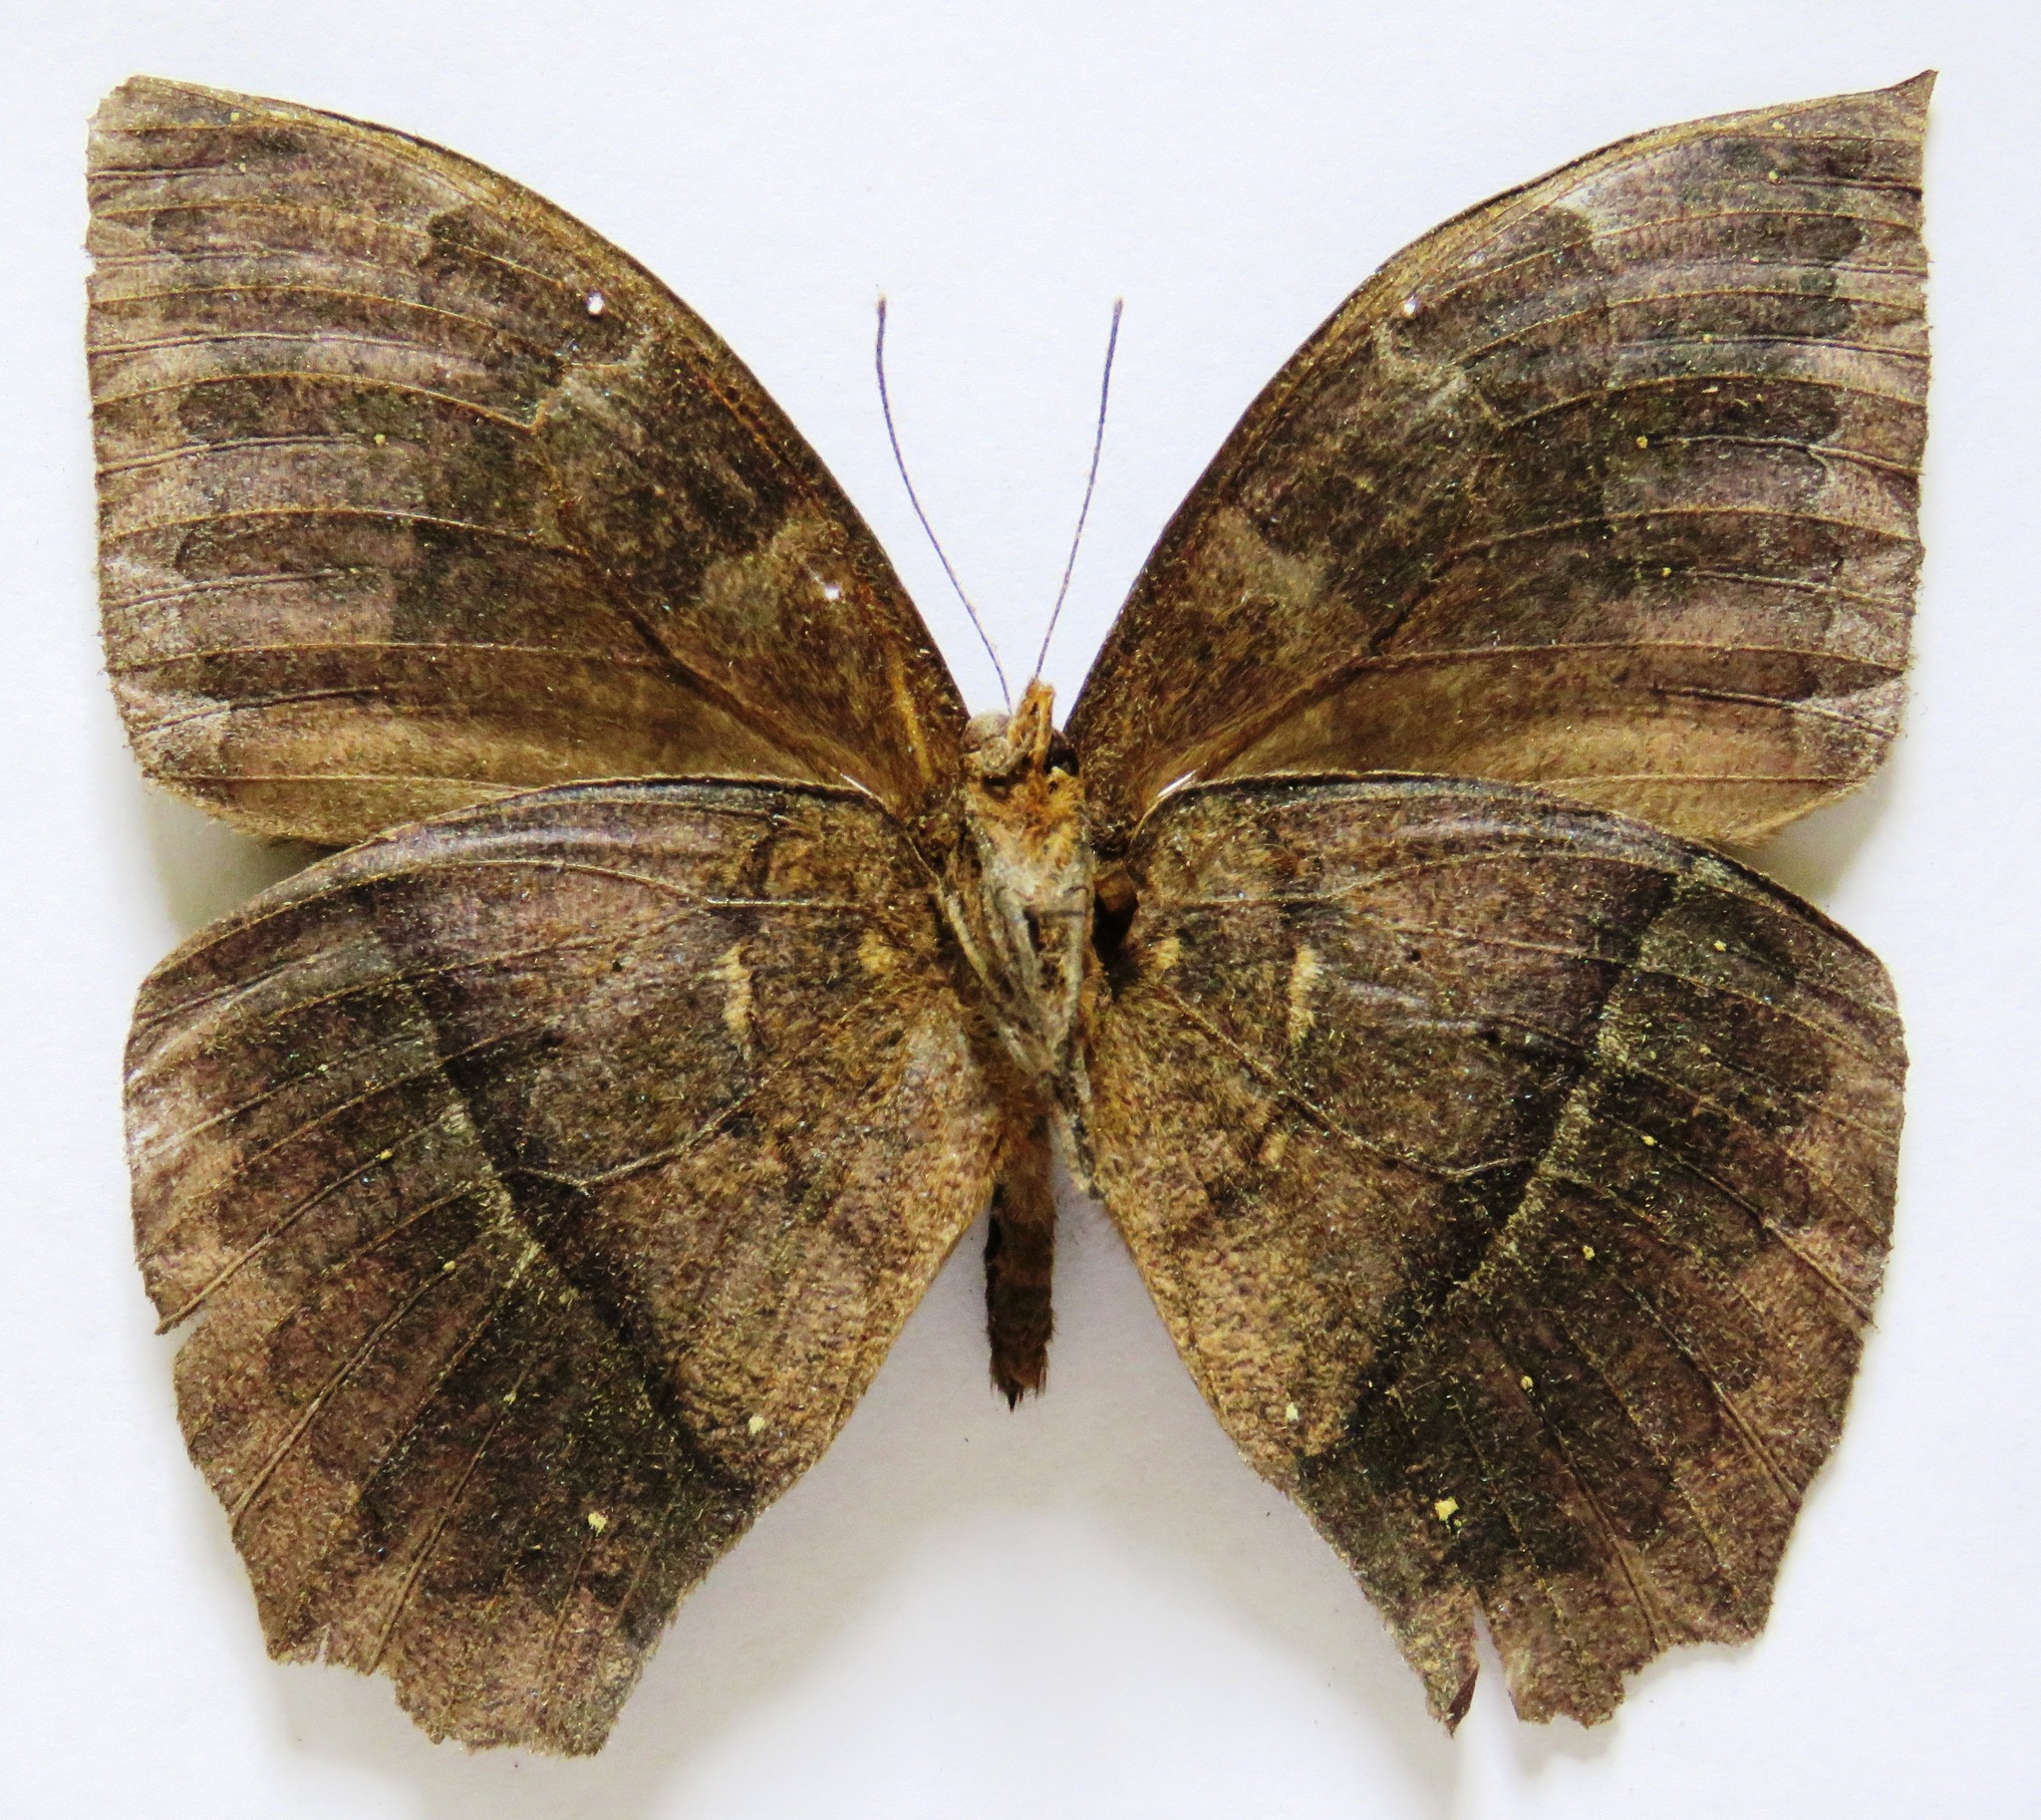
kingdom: Animalia
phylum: Arthropoda
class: Insecta
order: Lepidoptera
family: Nymphalidae
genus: Taygetis
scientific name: Taygetis mermeria
